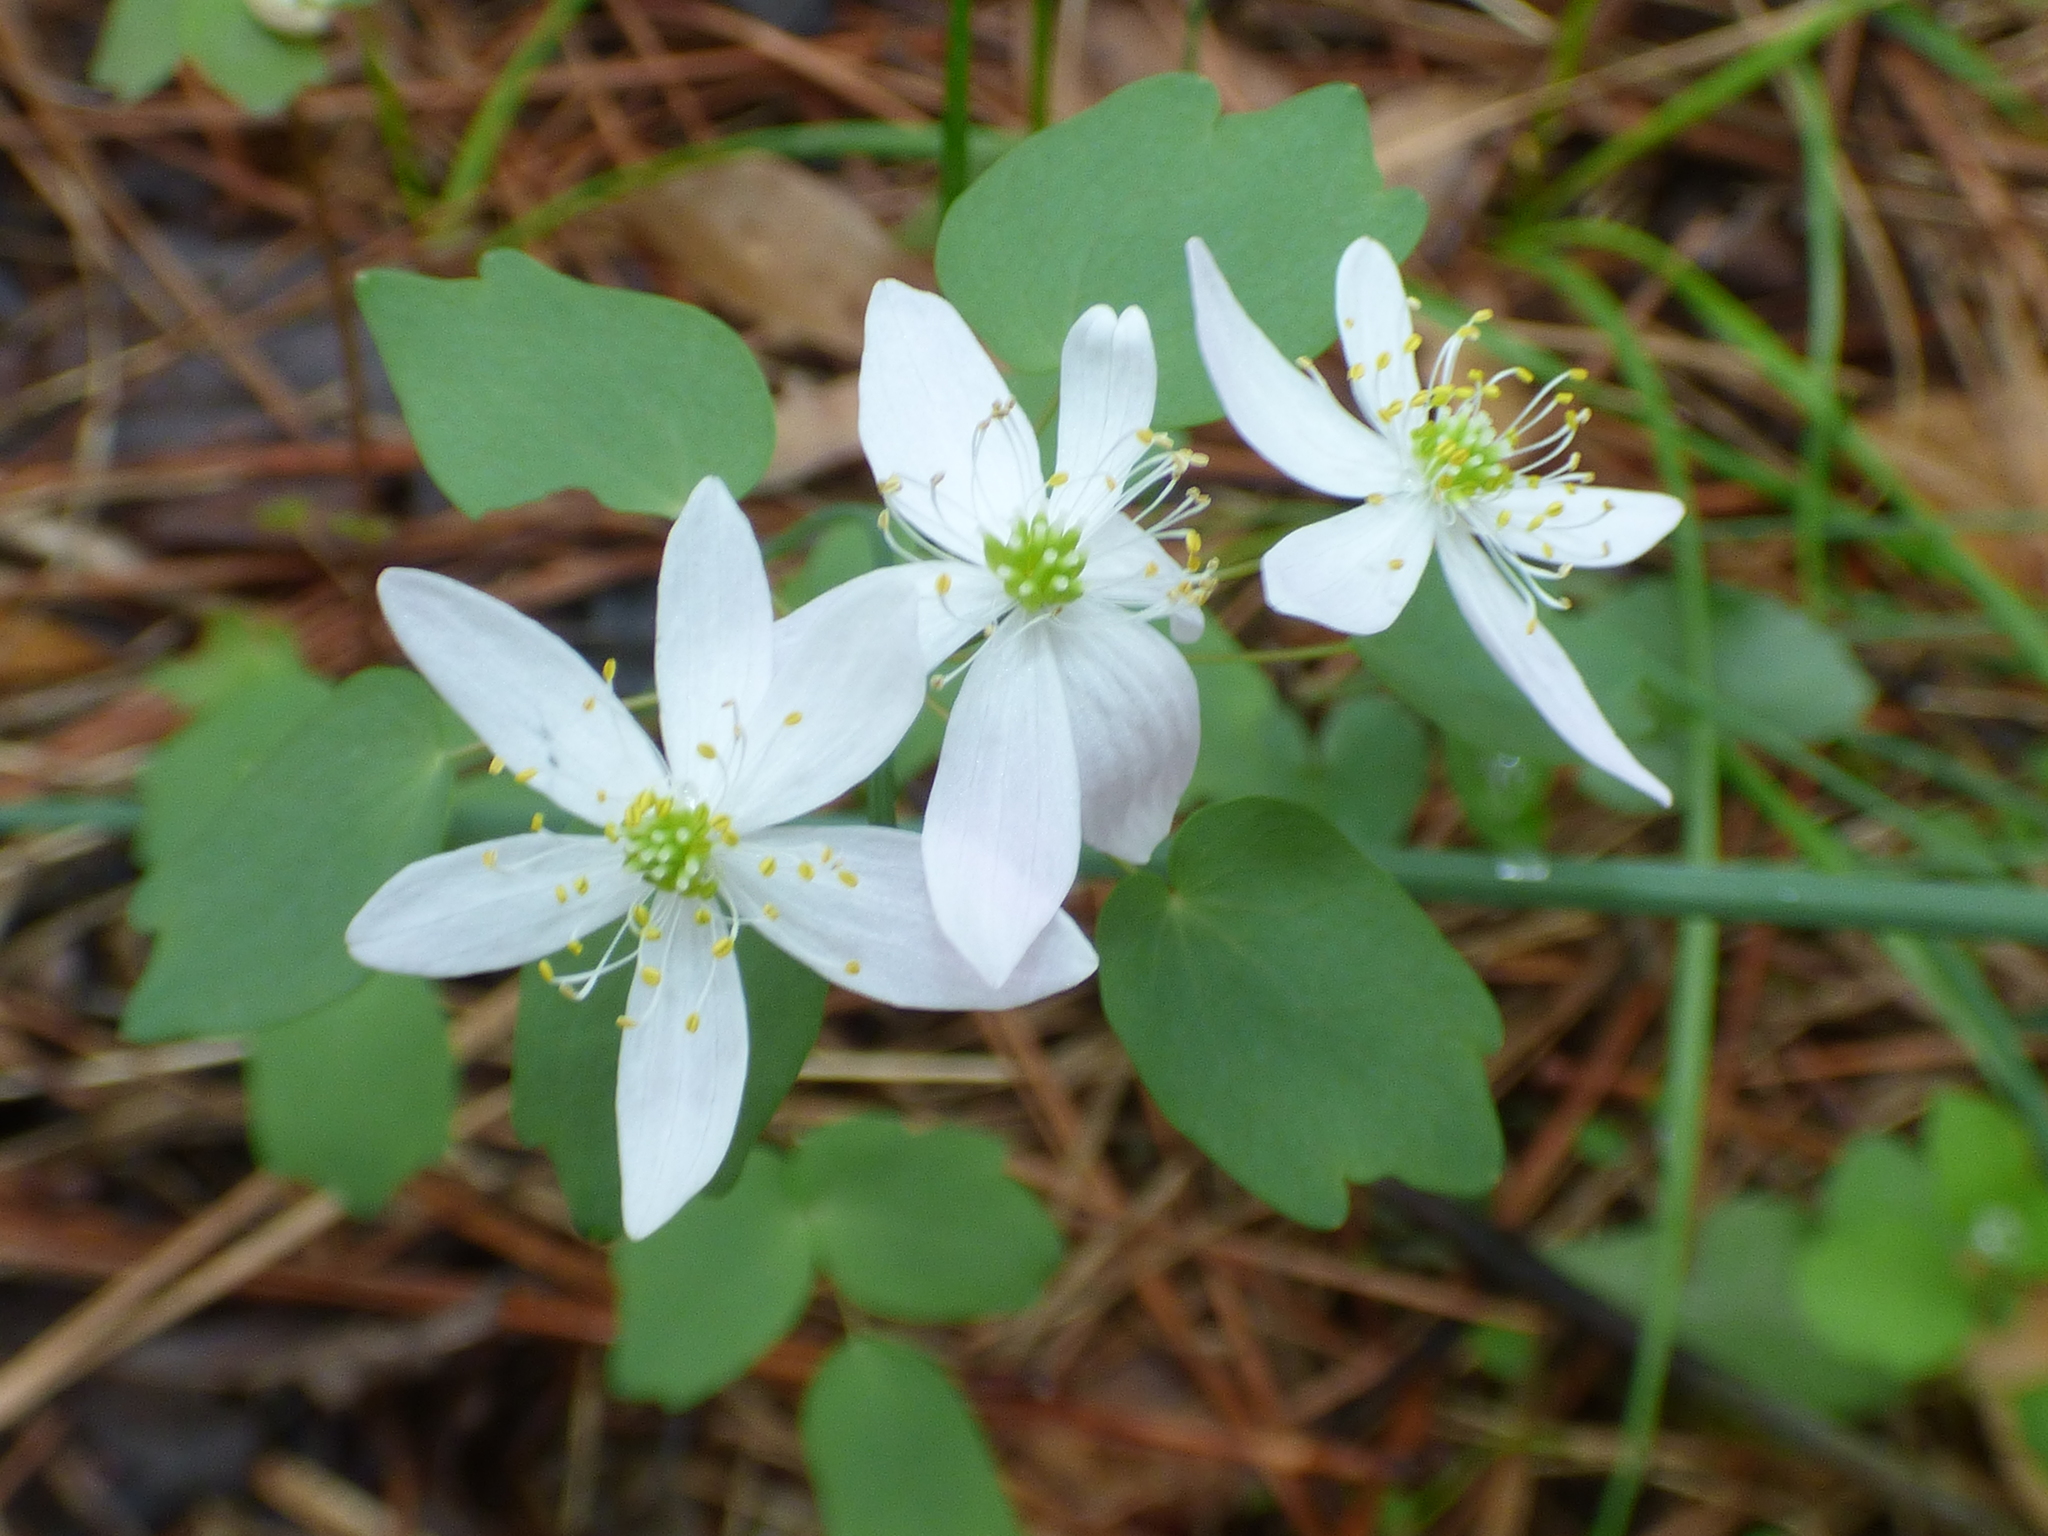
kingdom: Plantae
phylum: Tracheophyta
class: Magnoliopsida
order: Ranunculales
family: Ranunculaceae
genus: Thalictrum
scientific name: Thalictrum thalictroides
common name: Rue-anemone
